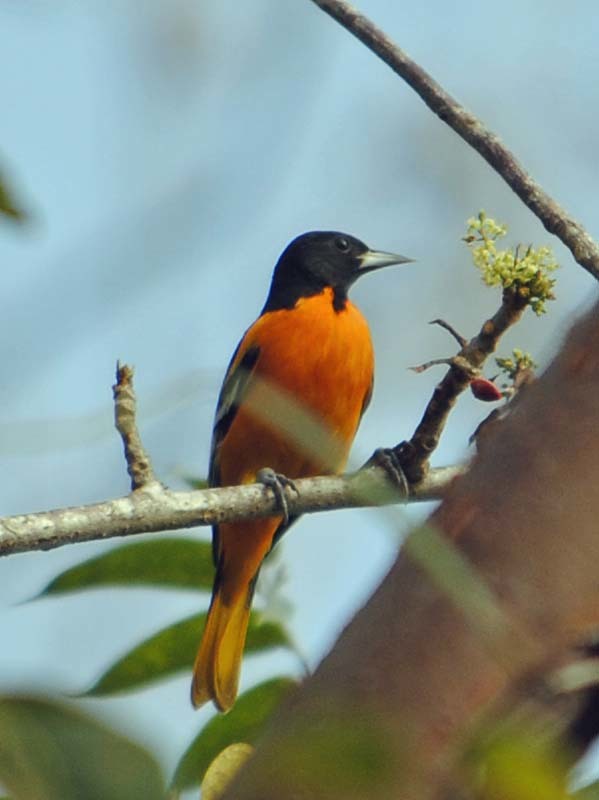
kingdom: Animalia
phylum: Chordata
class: Aves
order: Passeriformes
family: Icteridae
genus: Icterus
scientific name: Icterus galbula
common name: Baltimore oriole
